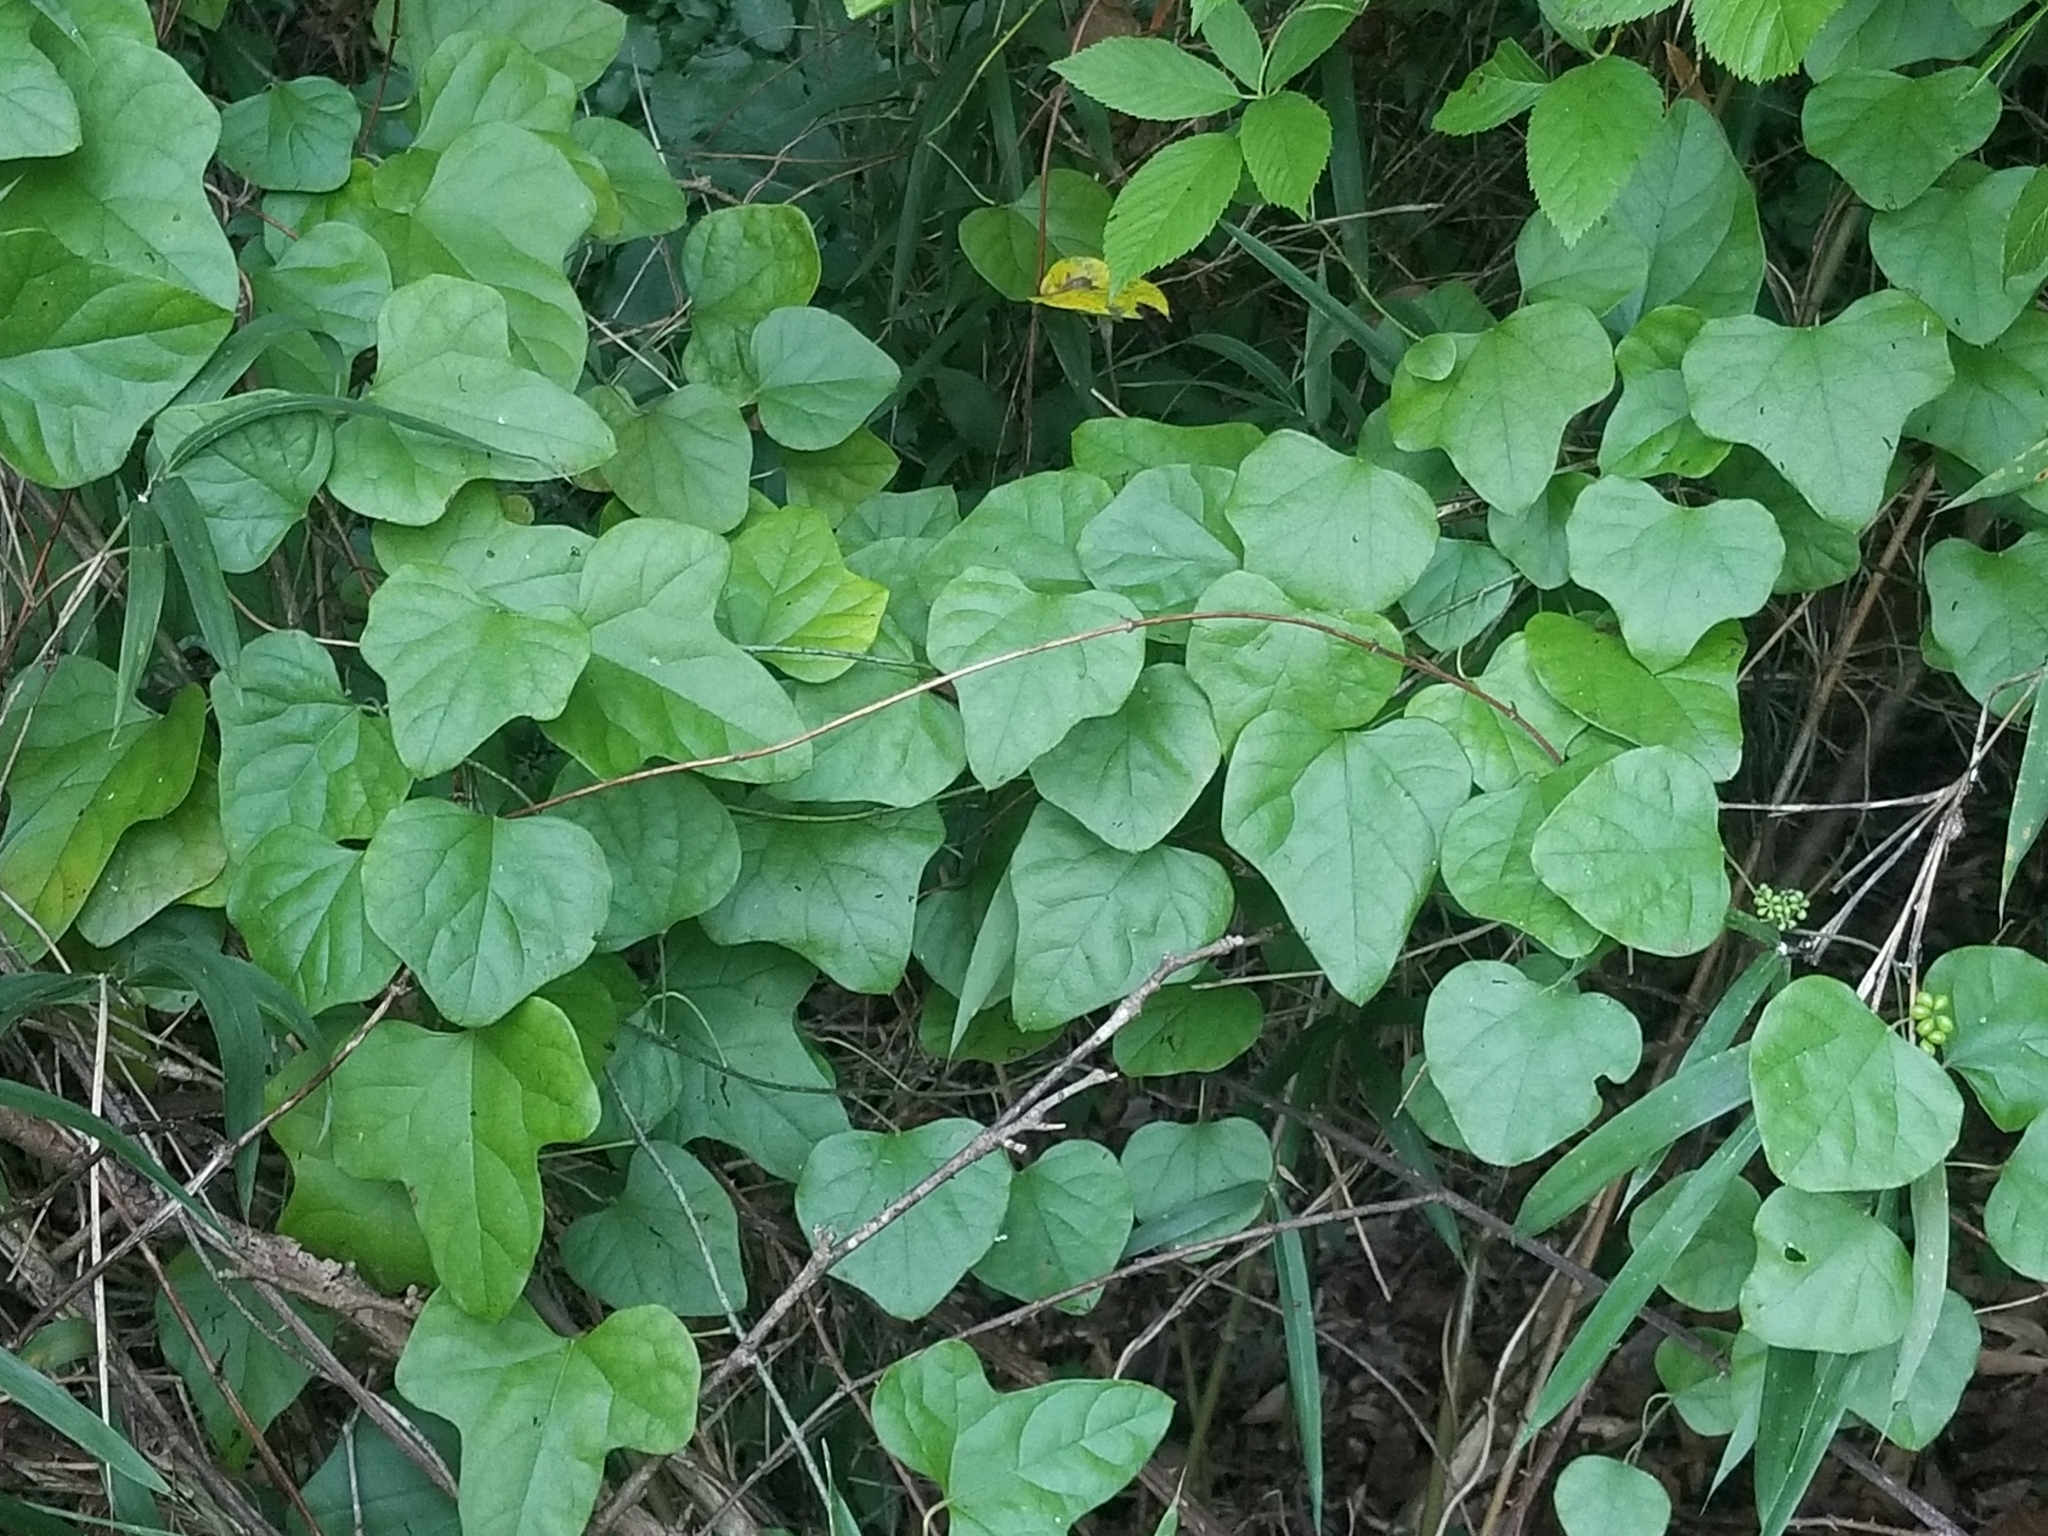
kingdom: Plantae
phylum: Tracheophyta
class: Magnoliopsida
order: Ranunculales
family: Menispermaceae
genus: Cocculus
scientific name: Cocculus carolinus
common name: Carolina moonseed
